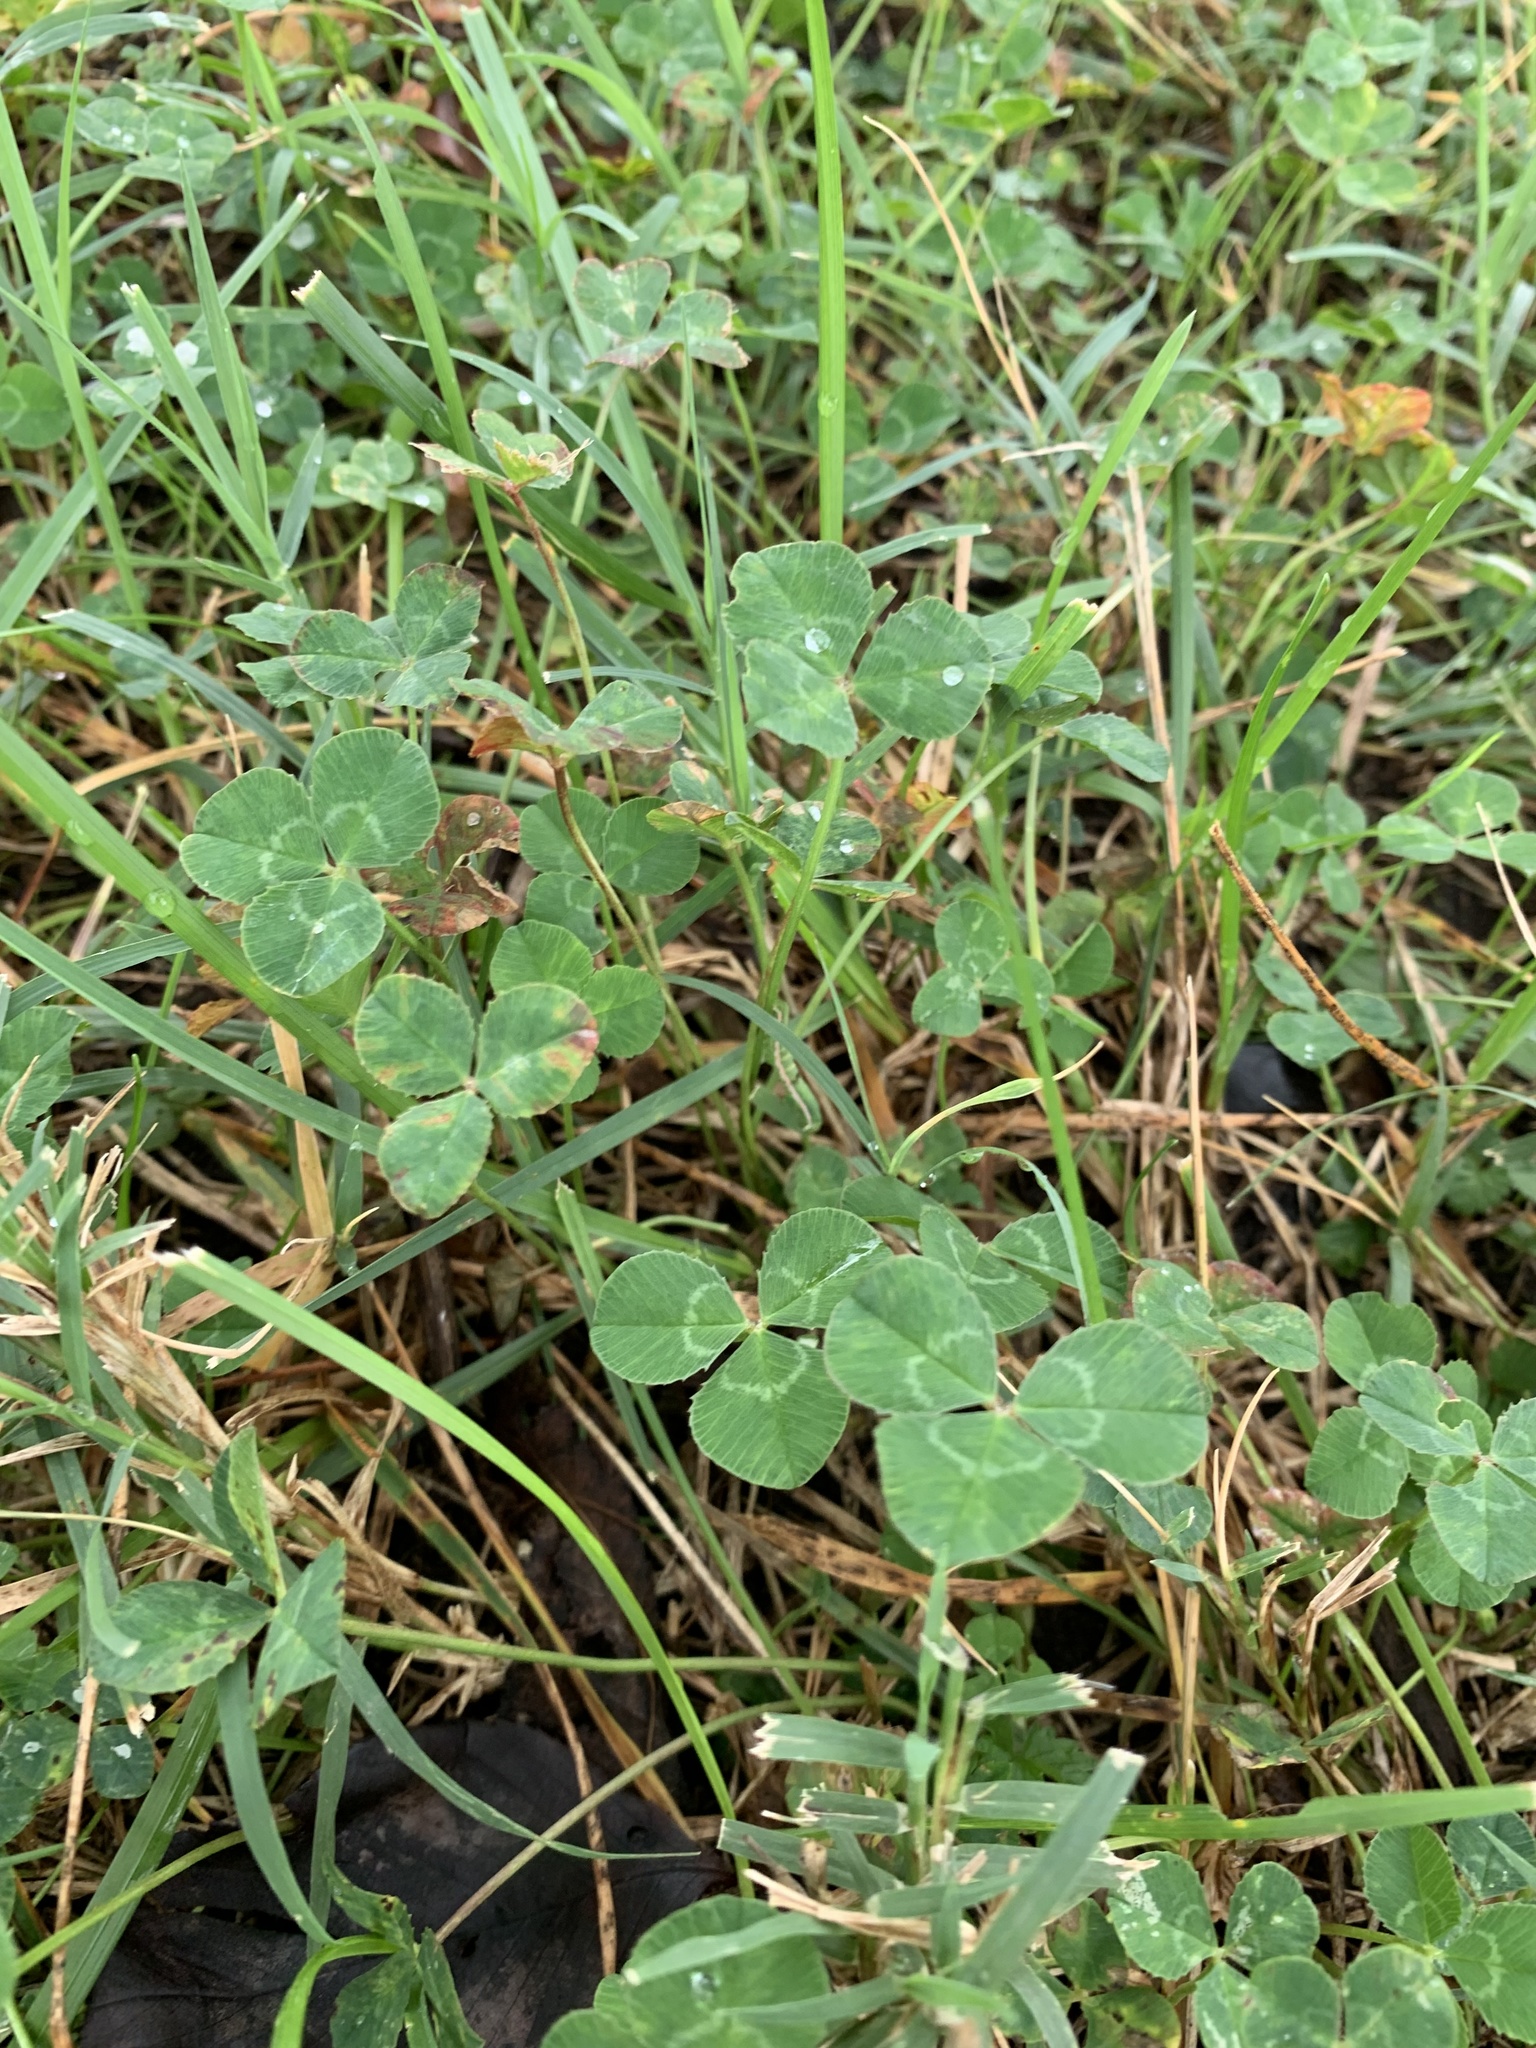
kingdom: Plantae
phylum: Tracheophyta
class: Magnoliopsida
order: Fabales
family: Fabaceae
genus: Trifolium
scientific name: Trifolium repens
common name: White clover
